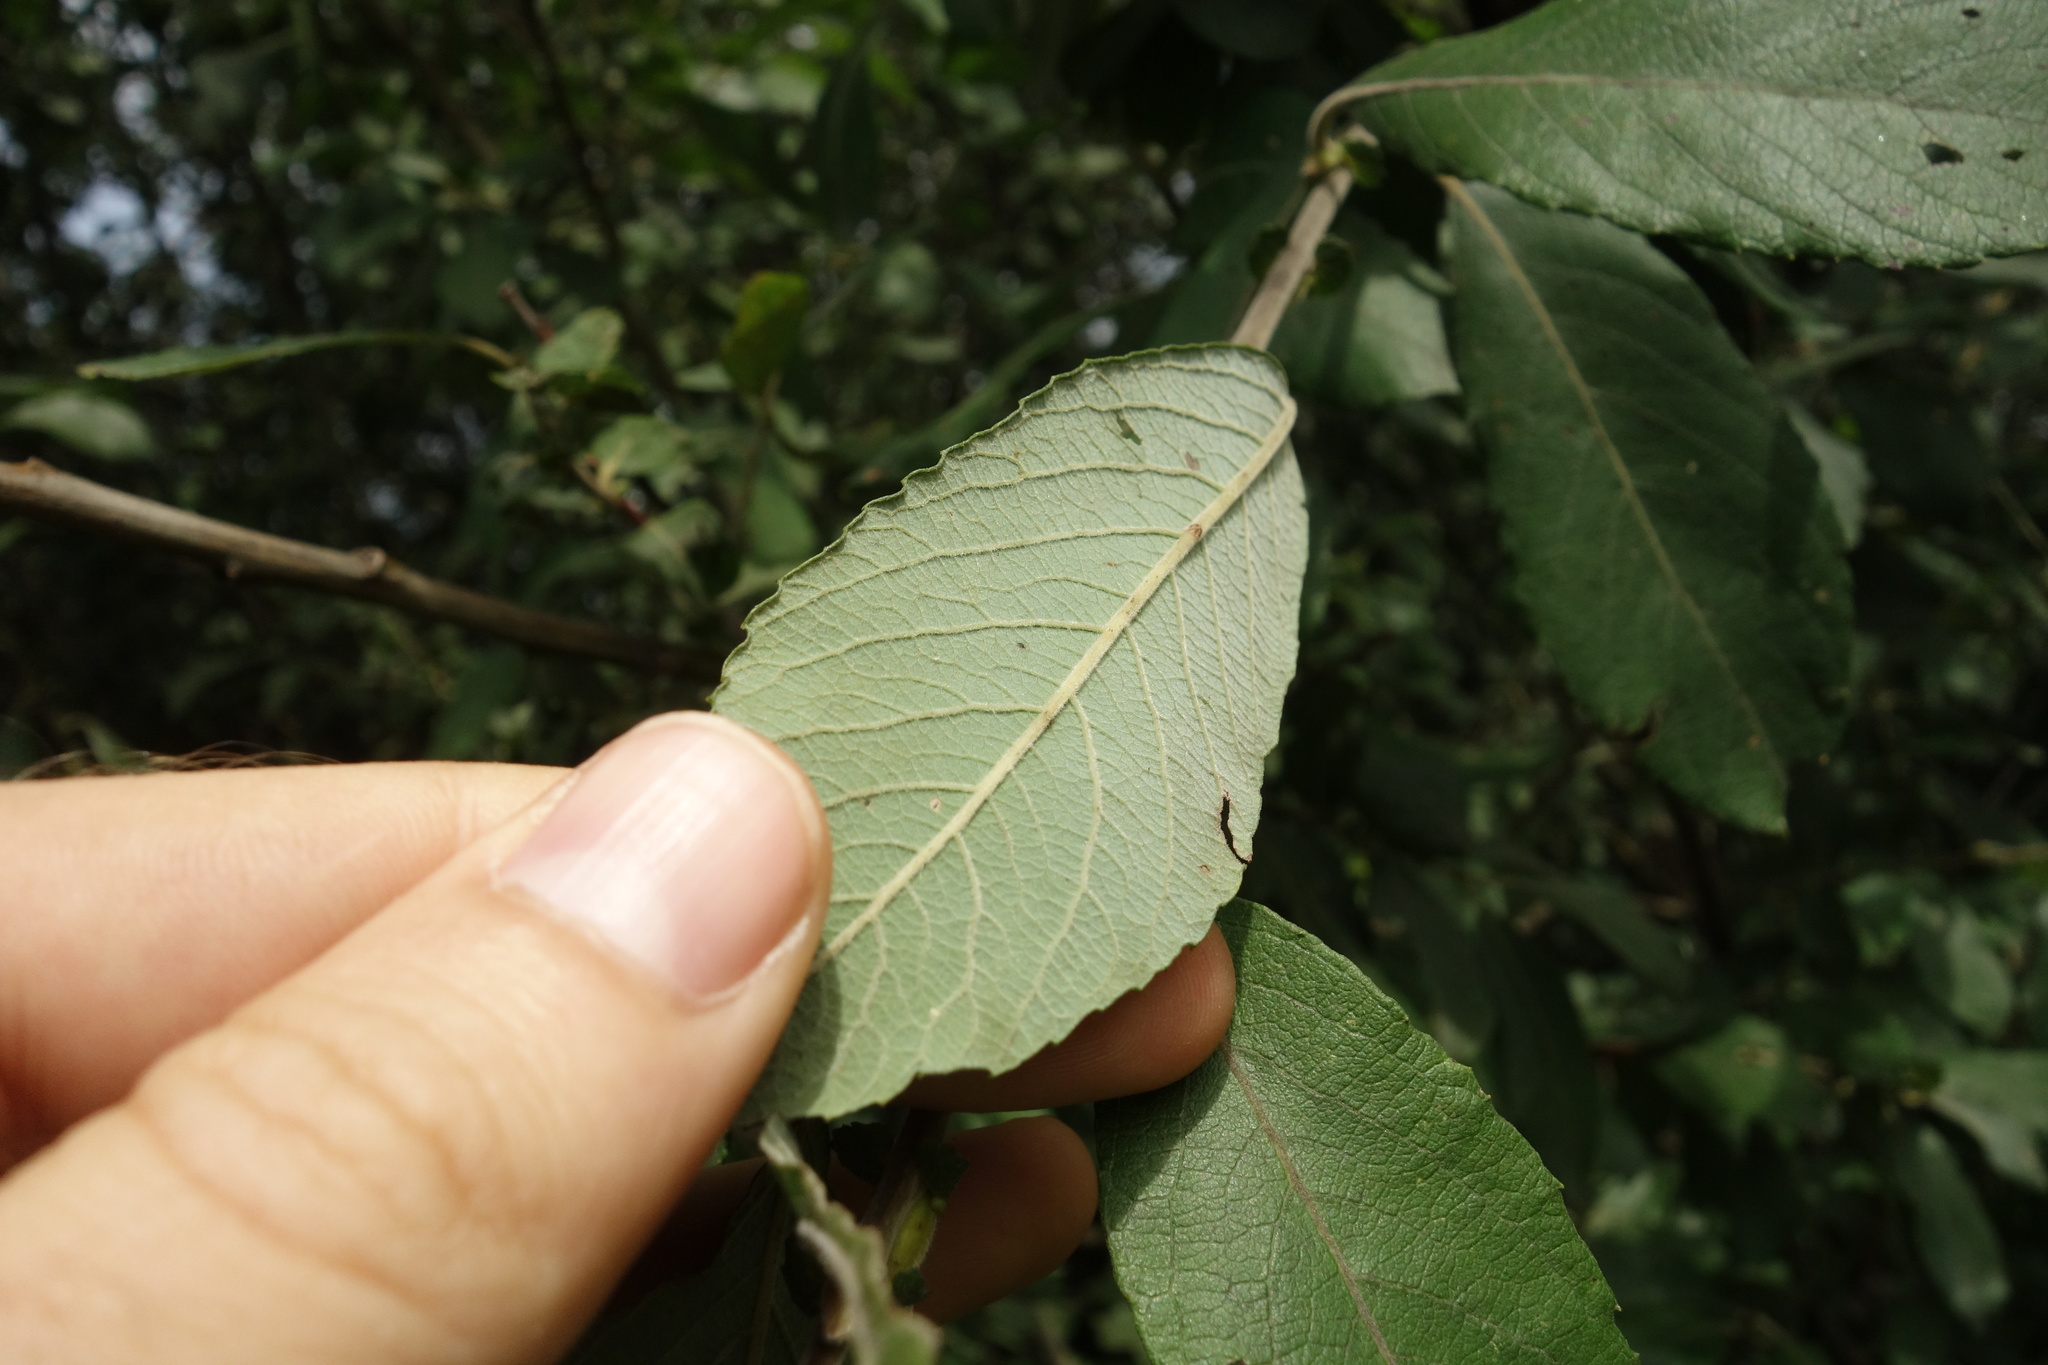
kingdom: Plantae
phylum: Tracheophyta
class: Magnoliopsida
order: Malpighiales
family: Salicaceae
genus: Salix
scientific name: Salix cinerea
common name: Common sallow
